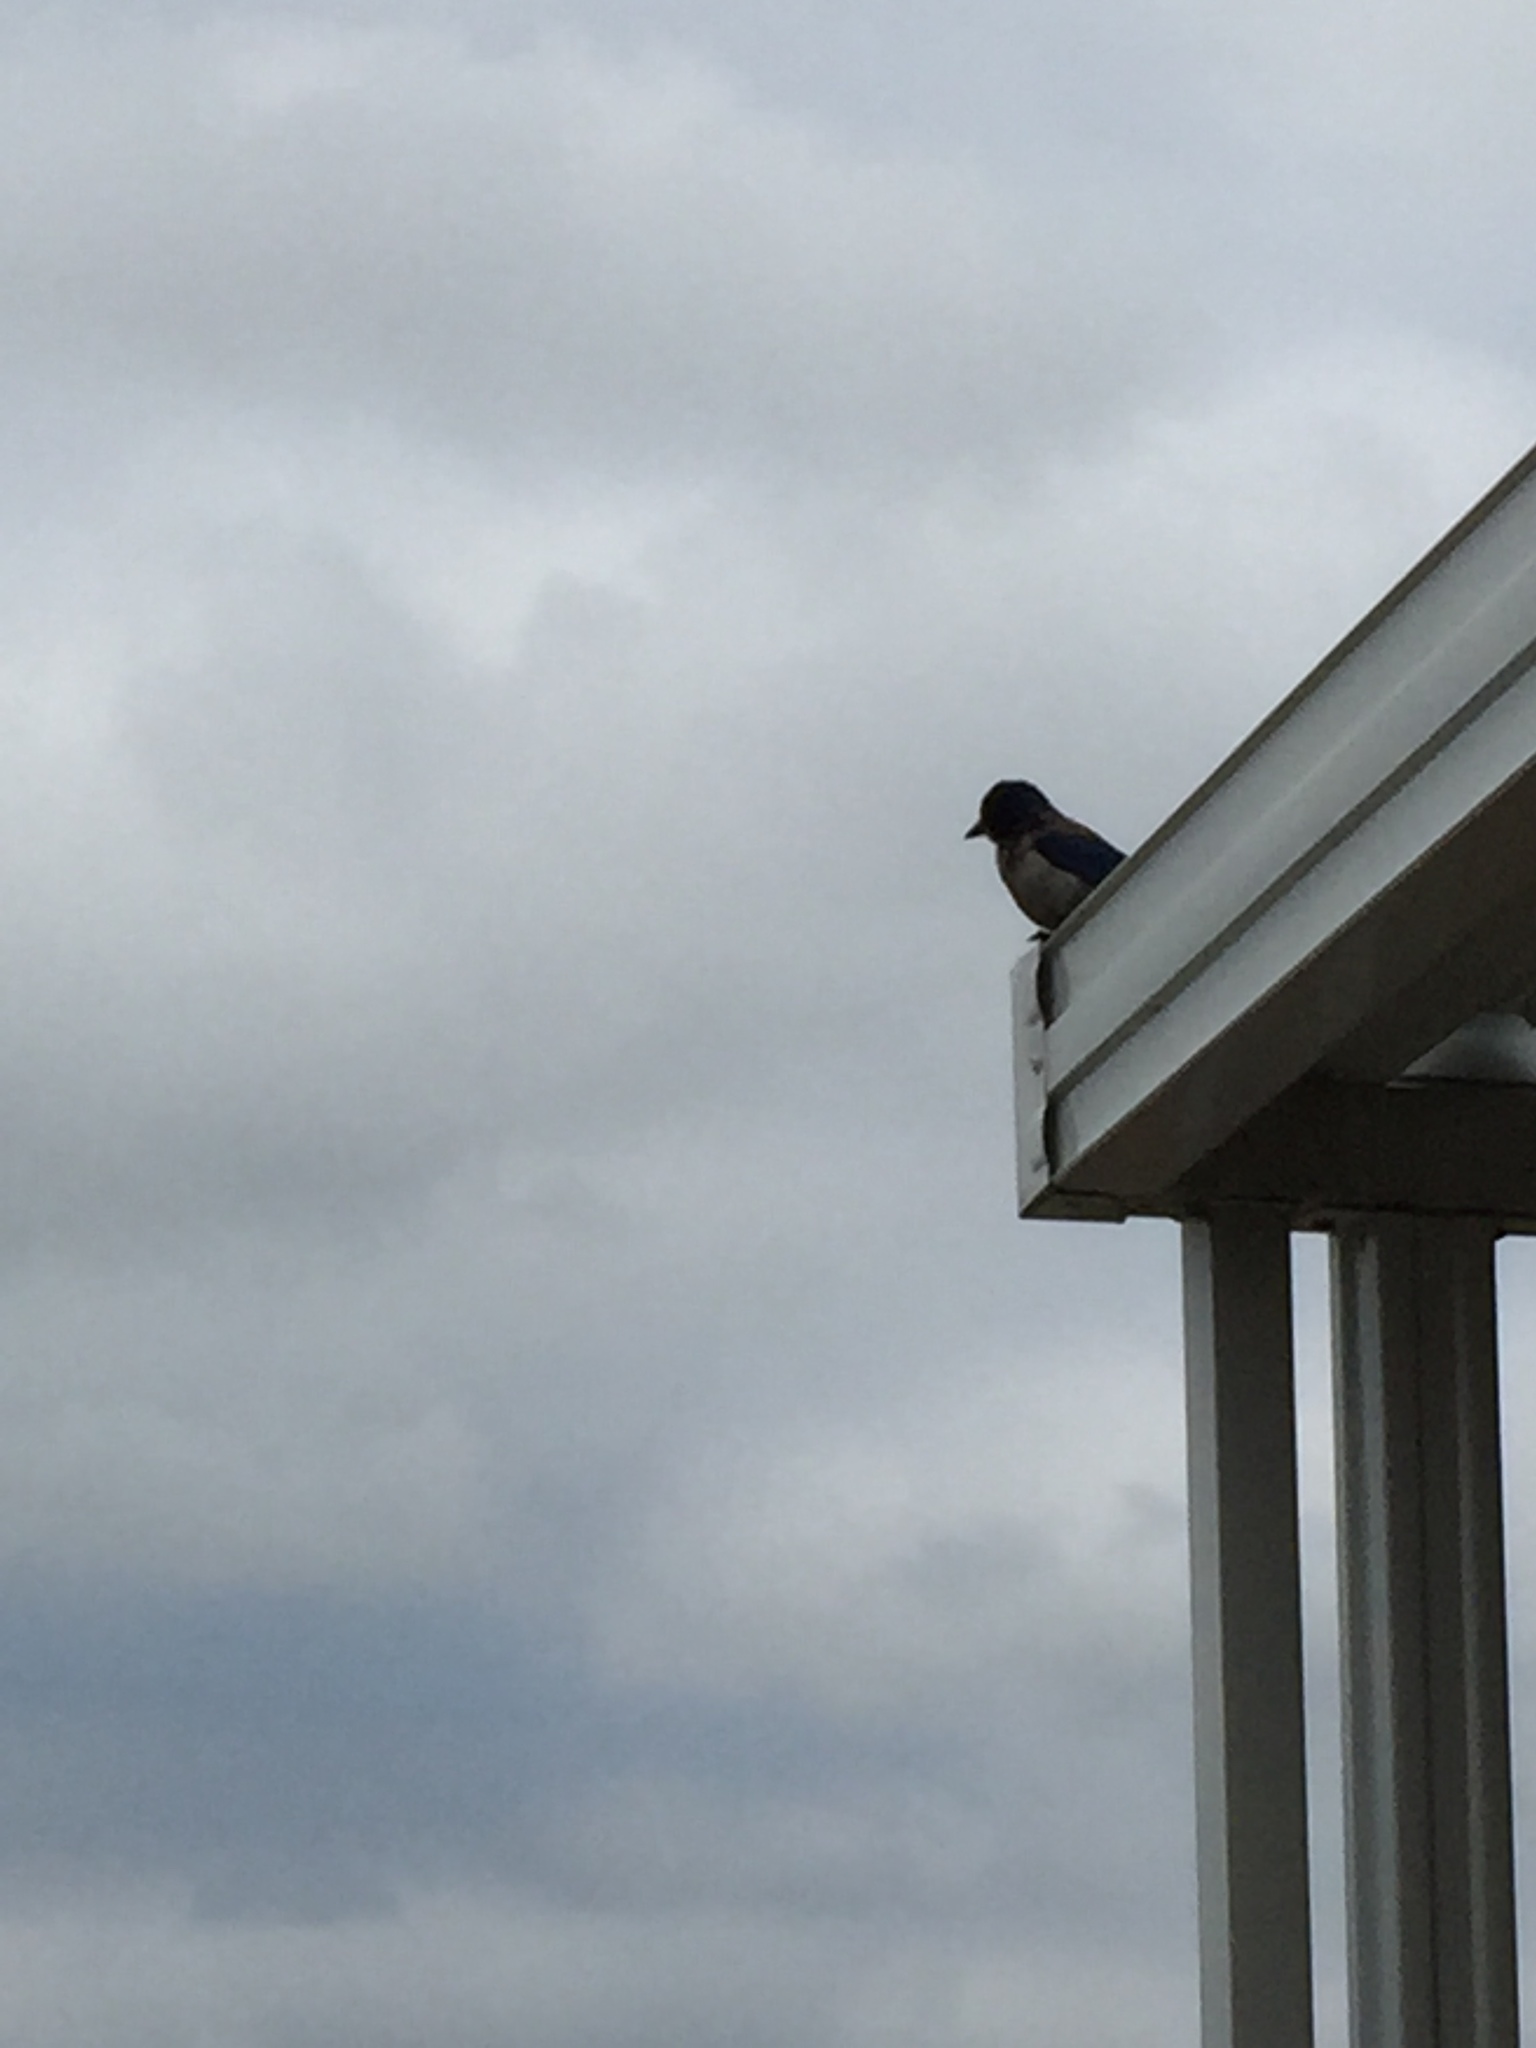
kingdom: Animalia
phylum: Chordata
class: Aves
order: Passeriformes
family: Corvidae
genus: Aphelocoma
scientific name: Aphelocoma californica
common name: California scrub-jay
